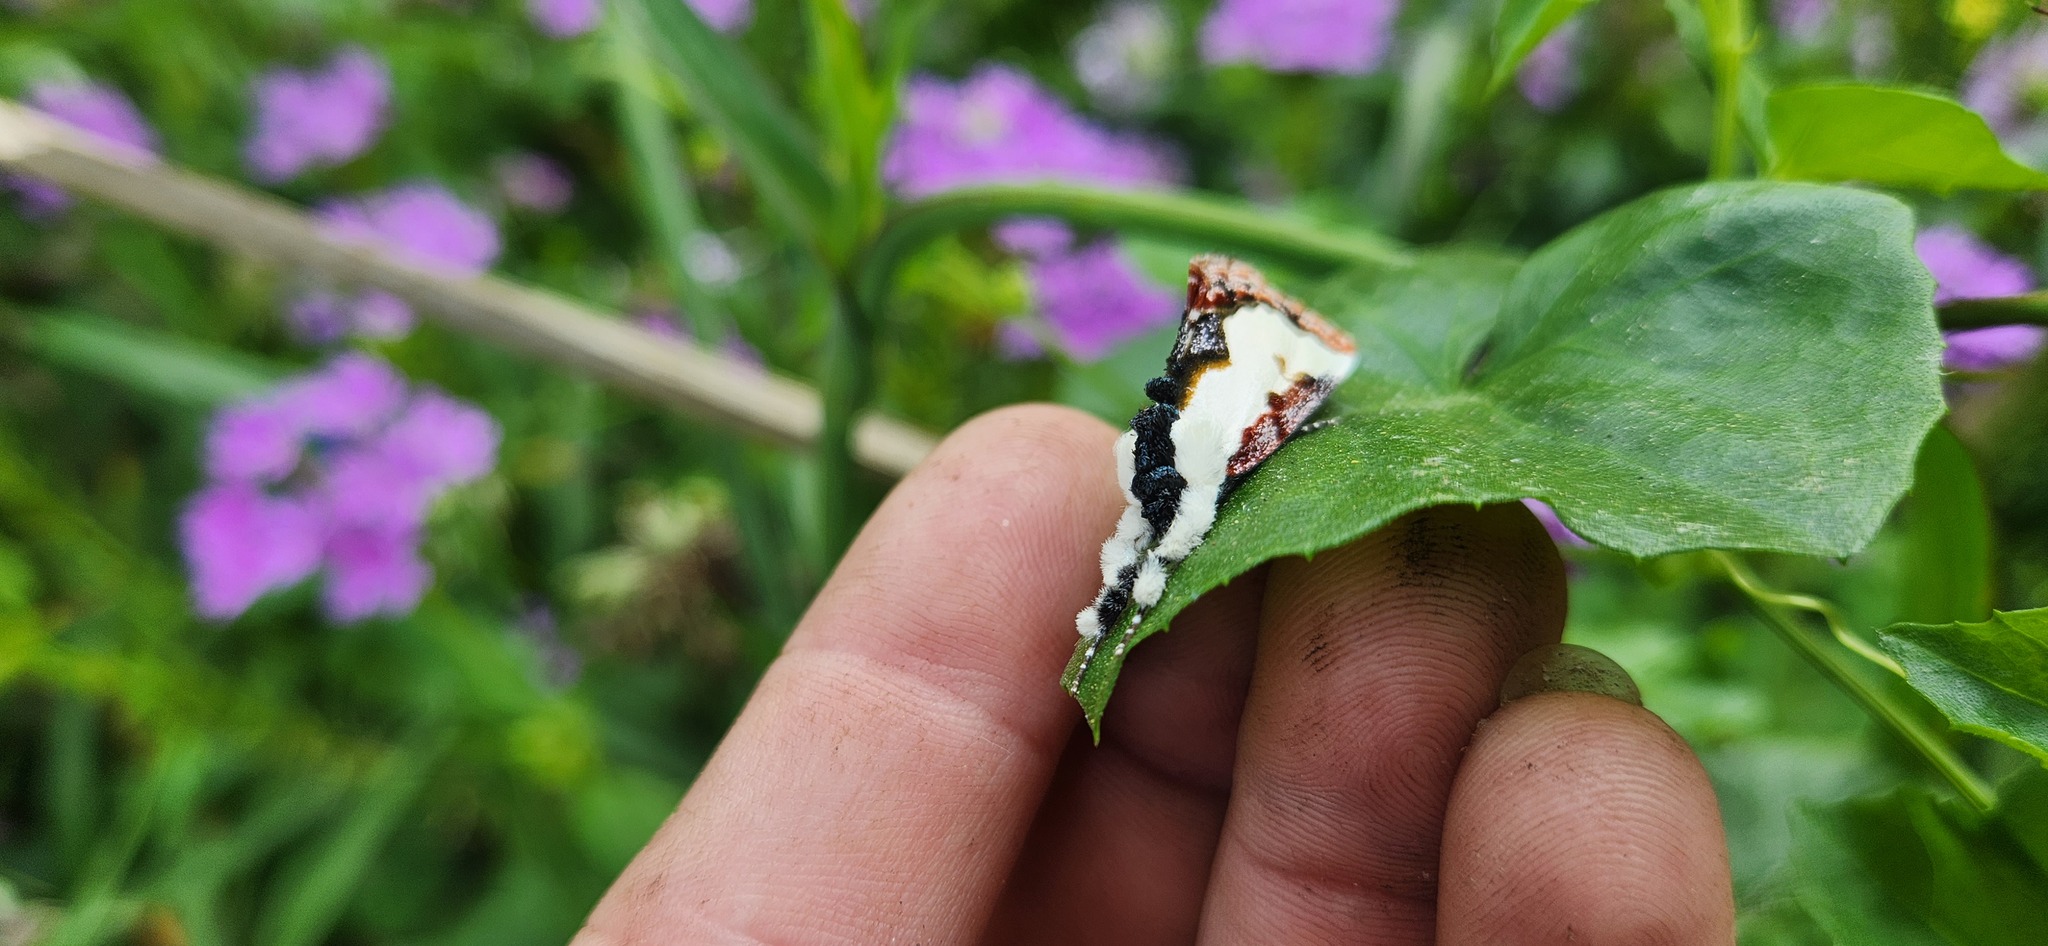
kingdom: Animalia
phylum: Arthropoda
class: Insecta
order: Lepidoptera
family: Noctuidae
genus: Eudryas
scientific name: Eudryas unio
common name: Pearly wood-nymph
